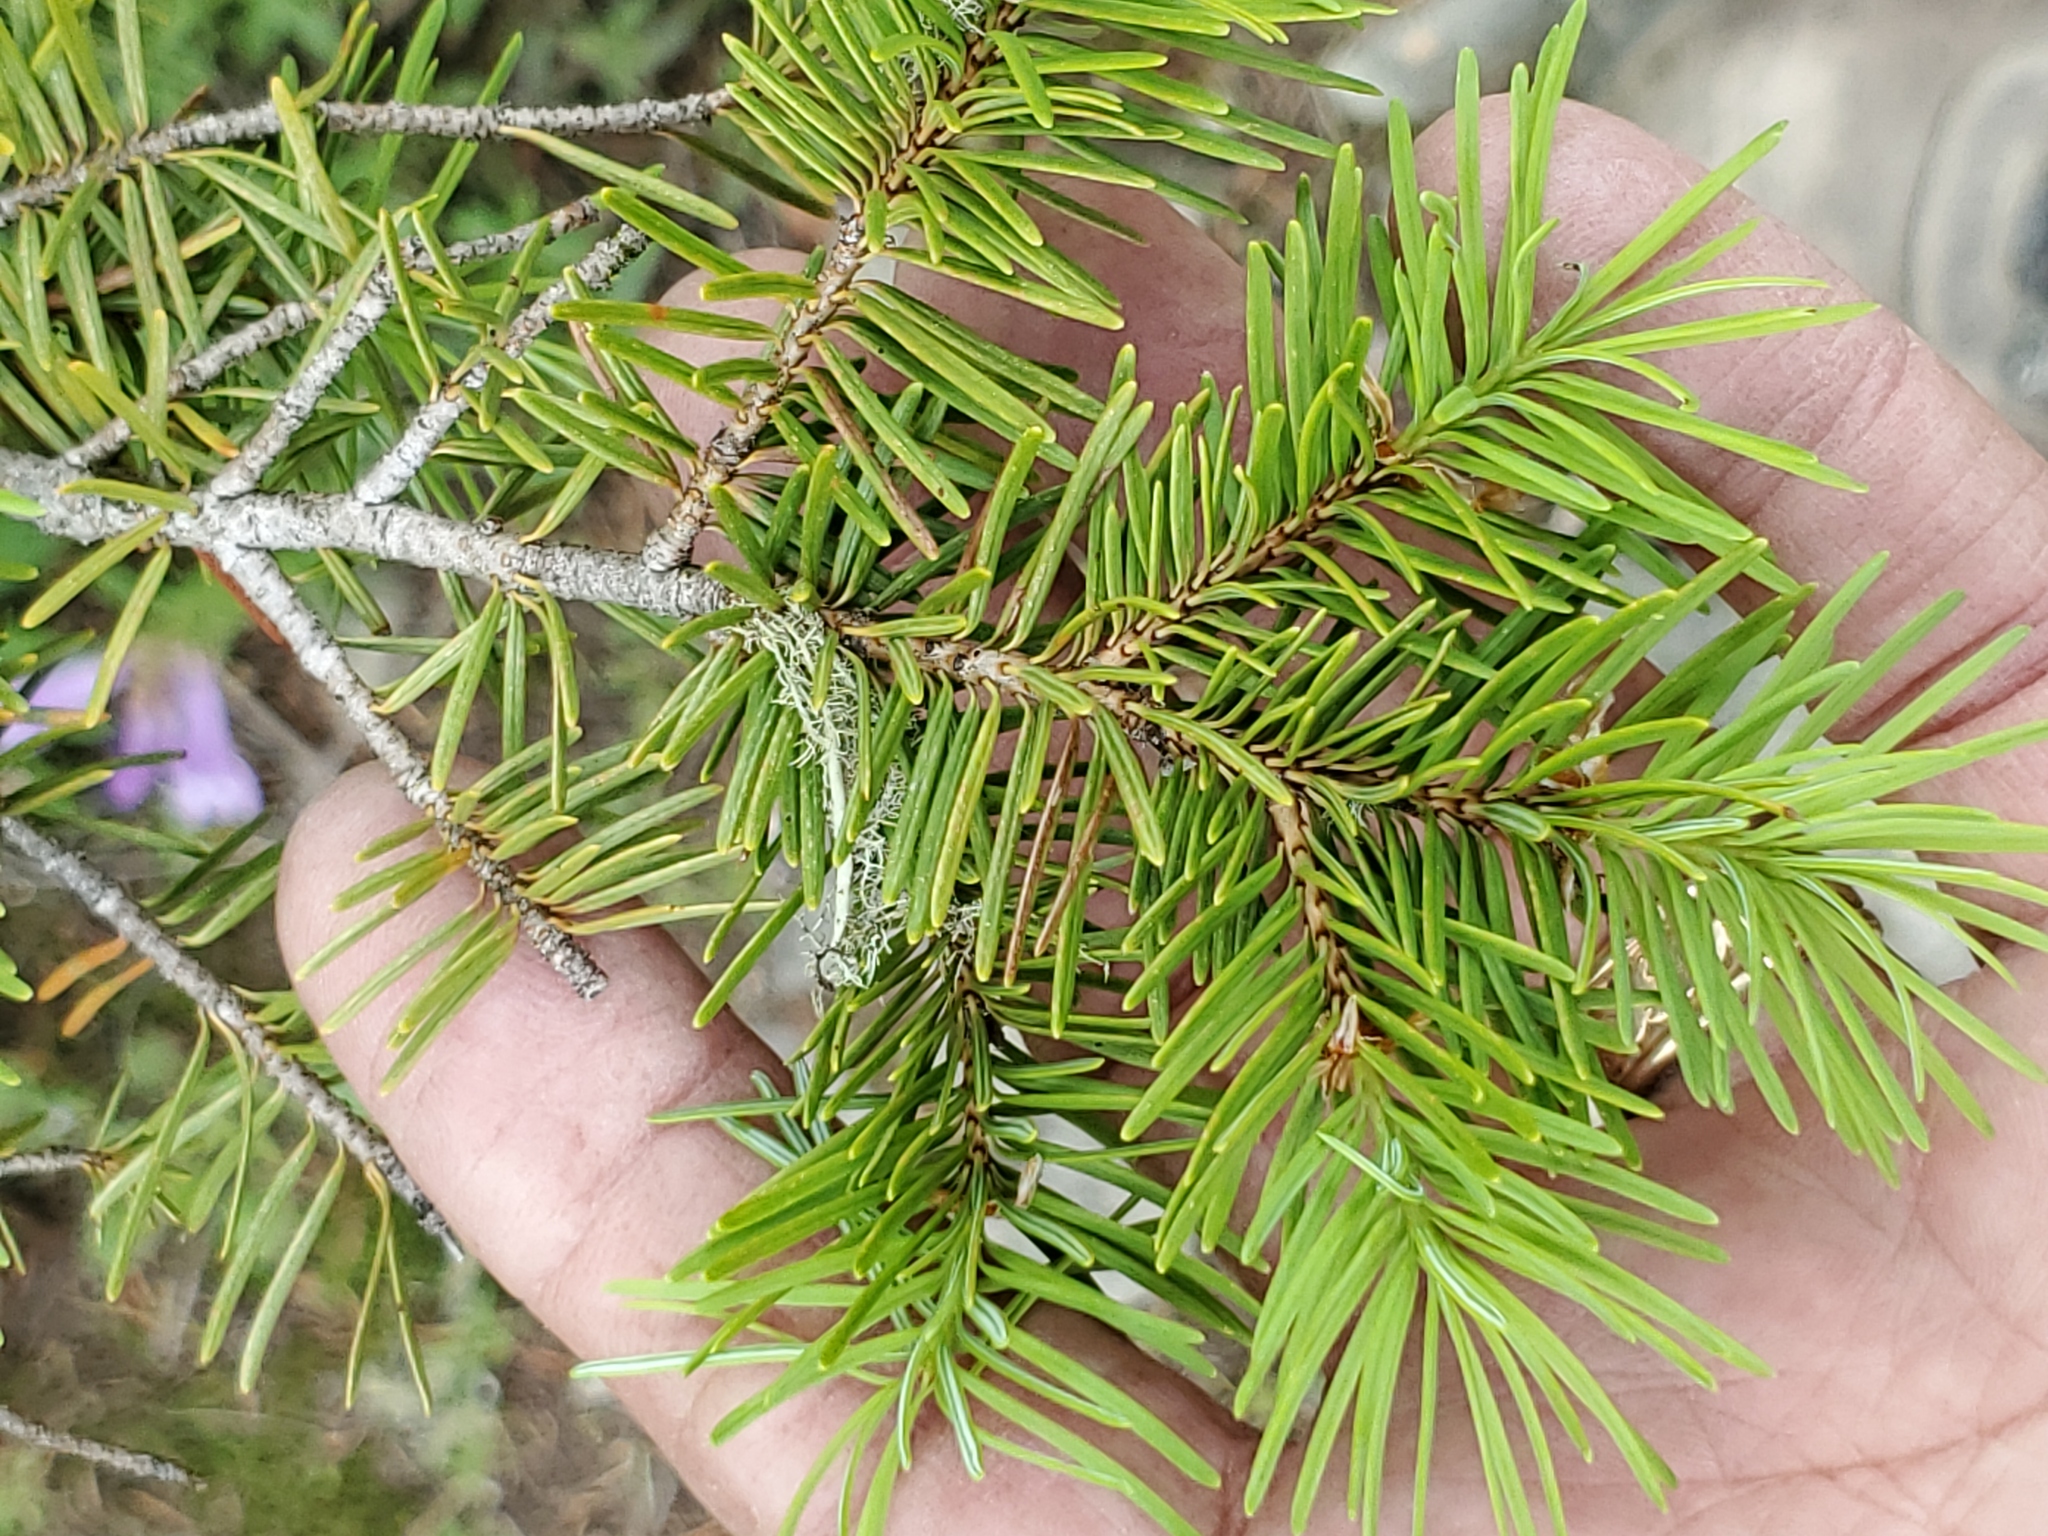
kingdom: Plantae
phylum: Tracheophyta
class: Pinopsida
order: Pinales
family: Pinaceae
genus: Pseudotsuga
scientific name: Pseudotsuga menziesii
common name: Douglas fir
